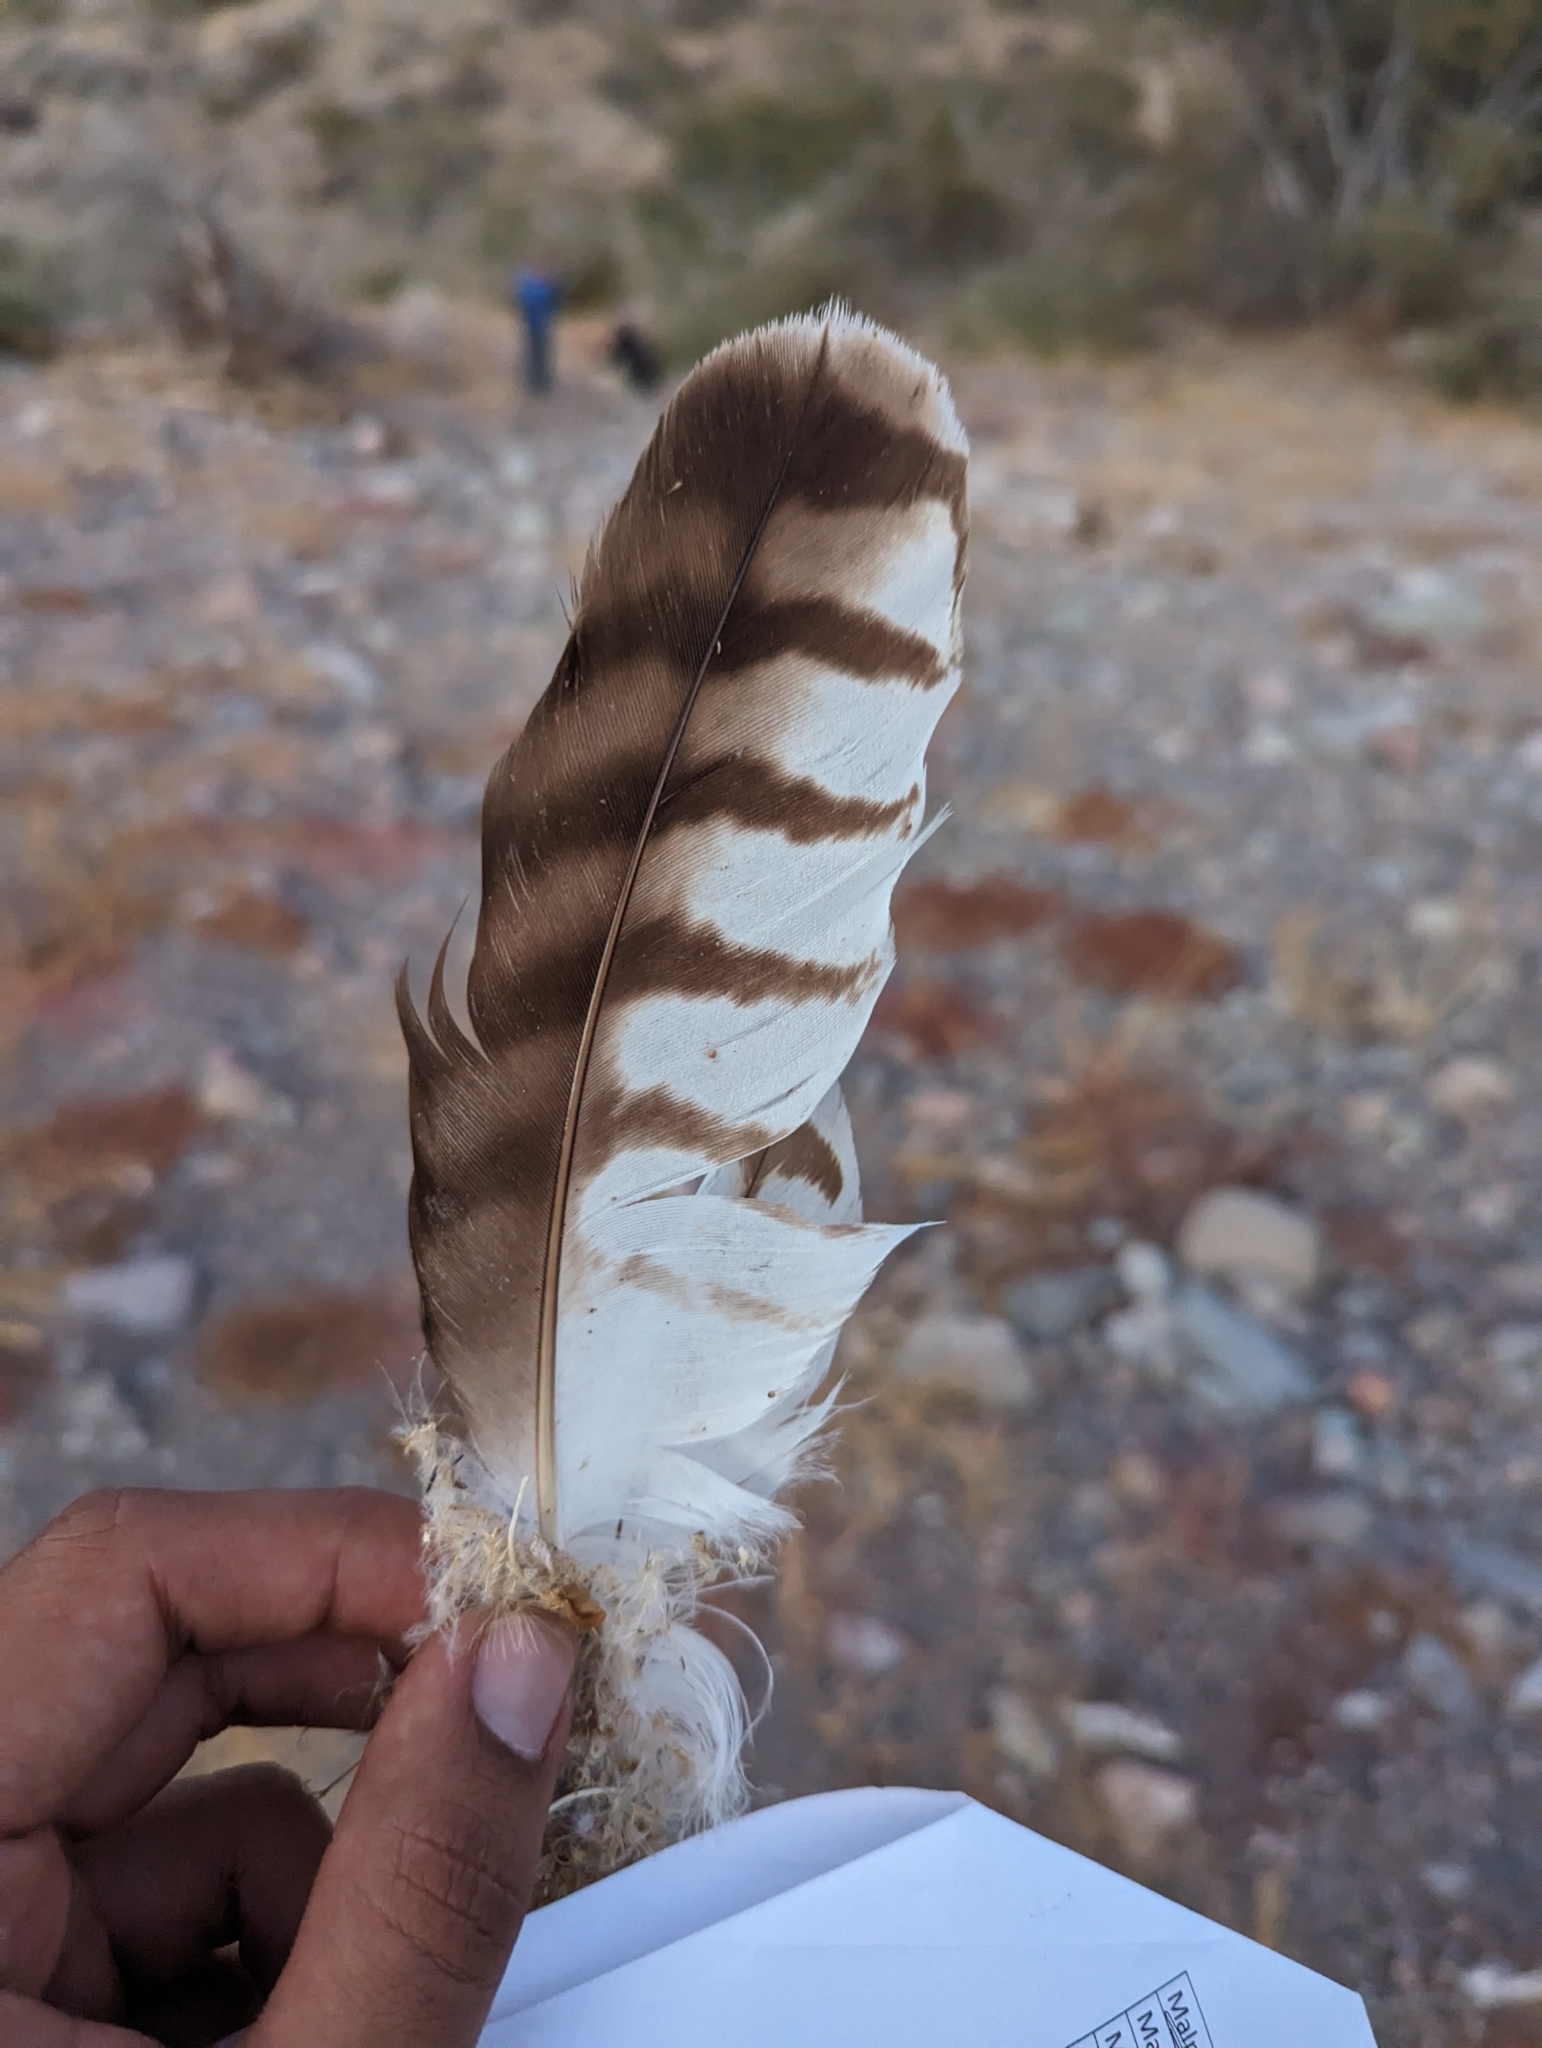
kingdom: Animalia
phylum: Chordata
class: Aves
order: Accipitriformes
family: Accipitridae
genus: Buteo
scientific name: Buteo jamaicensis
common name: Red-tailed hawk
